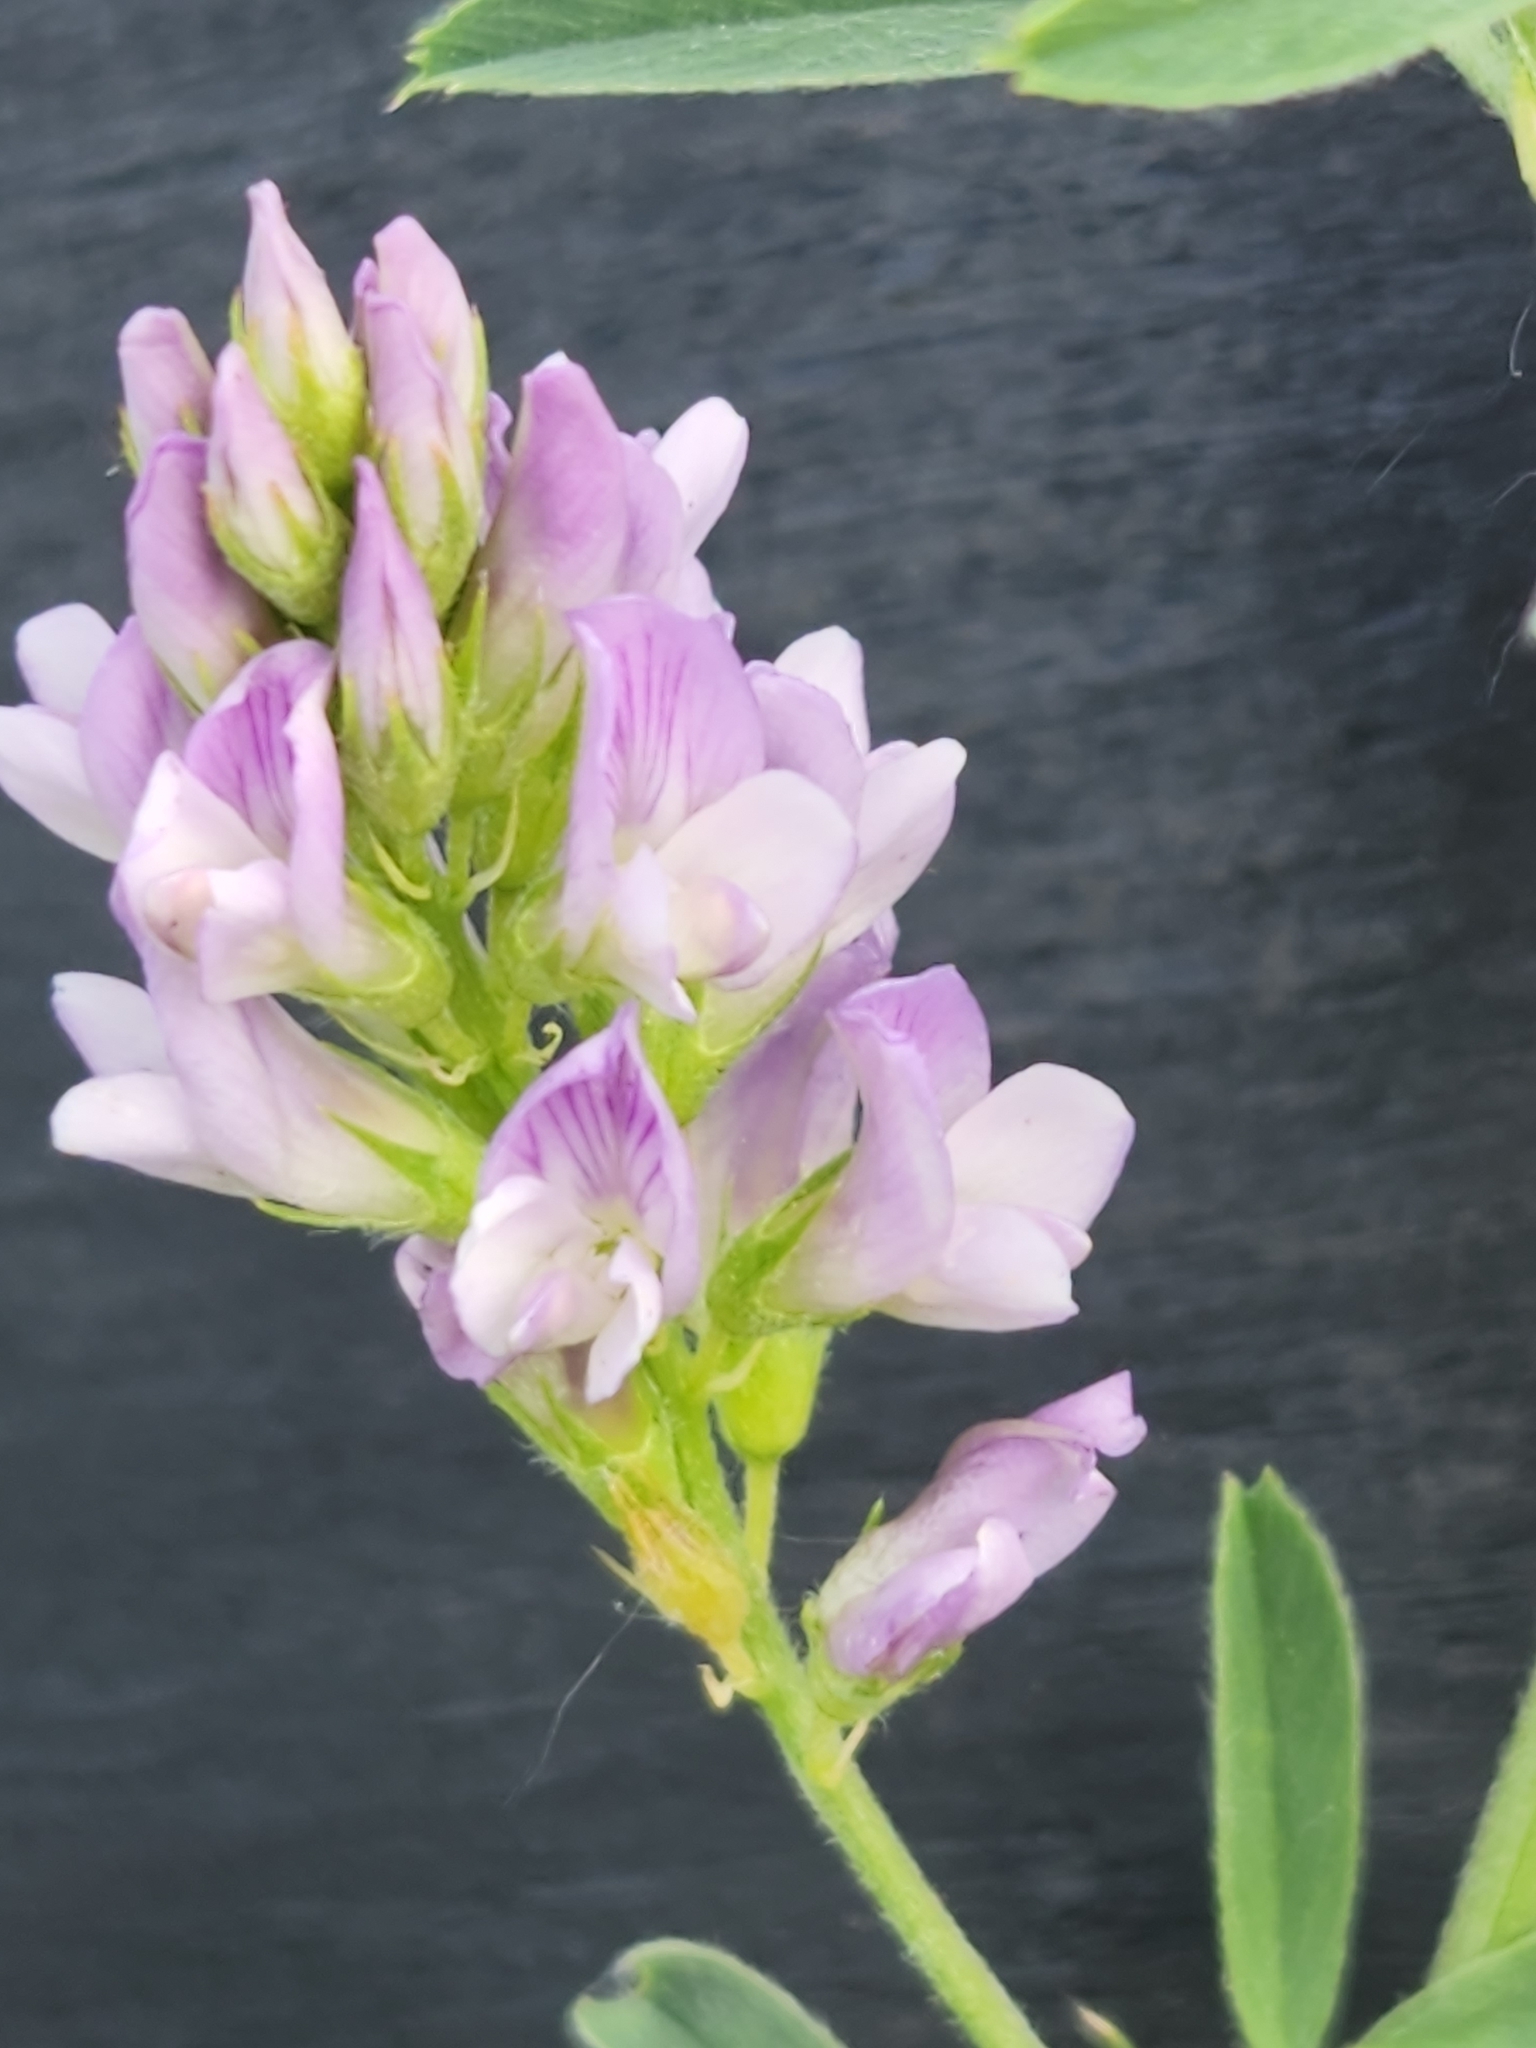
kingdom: Plantae
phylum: Tracheophyta
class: Magnoliopsida
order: Fabales
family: Fabaceae
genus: Medicago
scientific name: Medicago sativa
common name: Alfalfa
